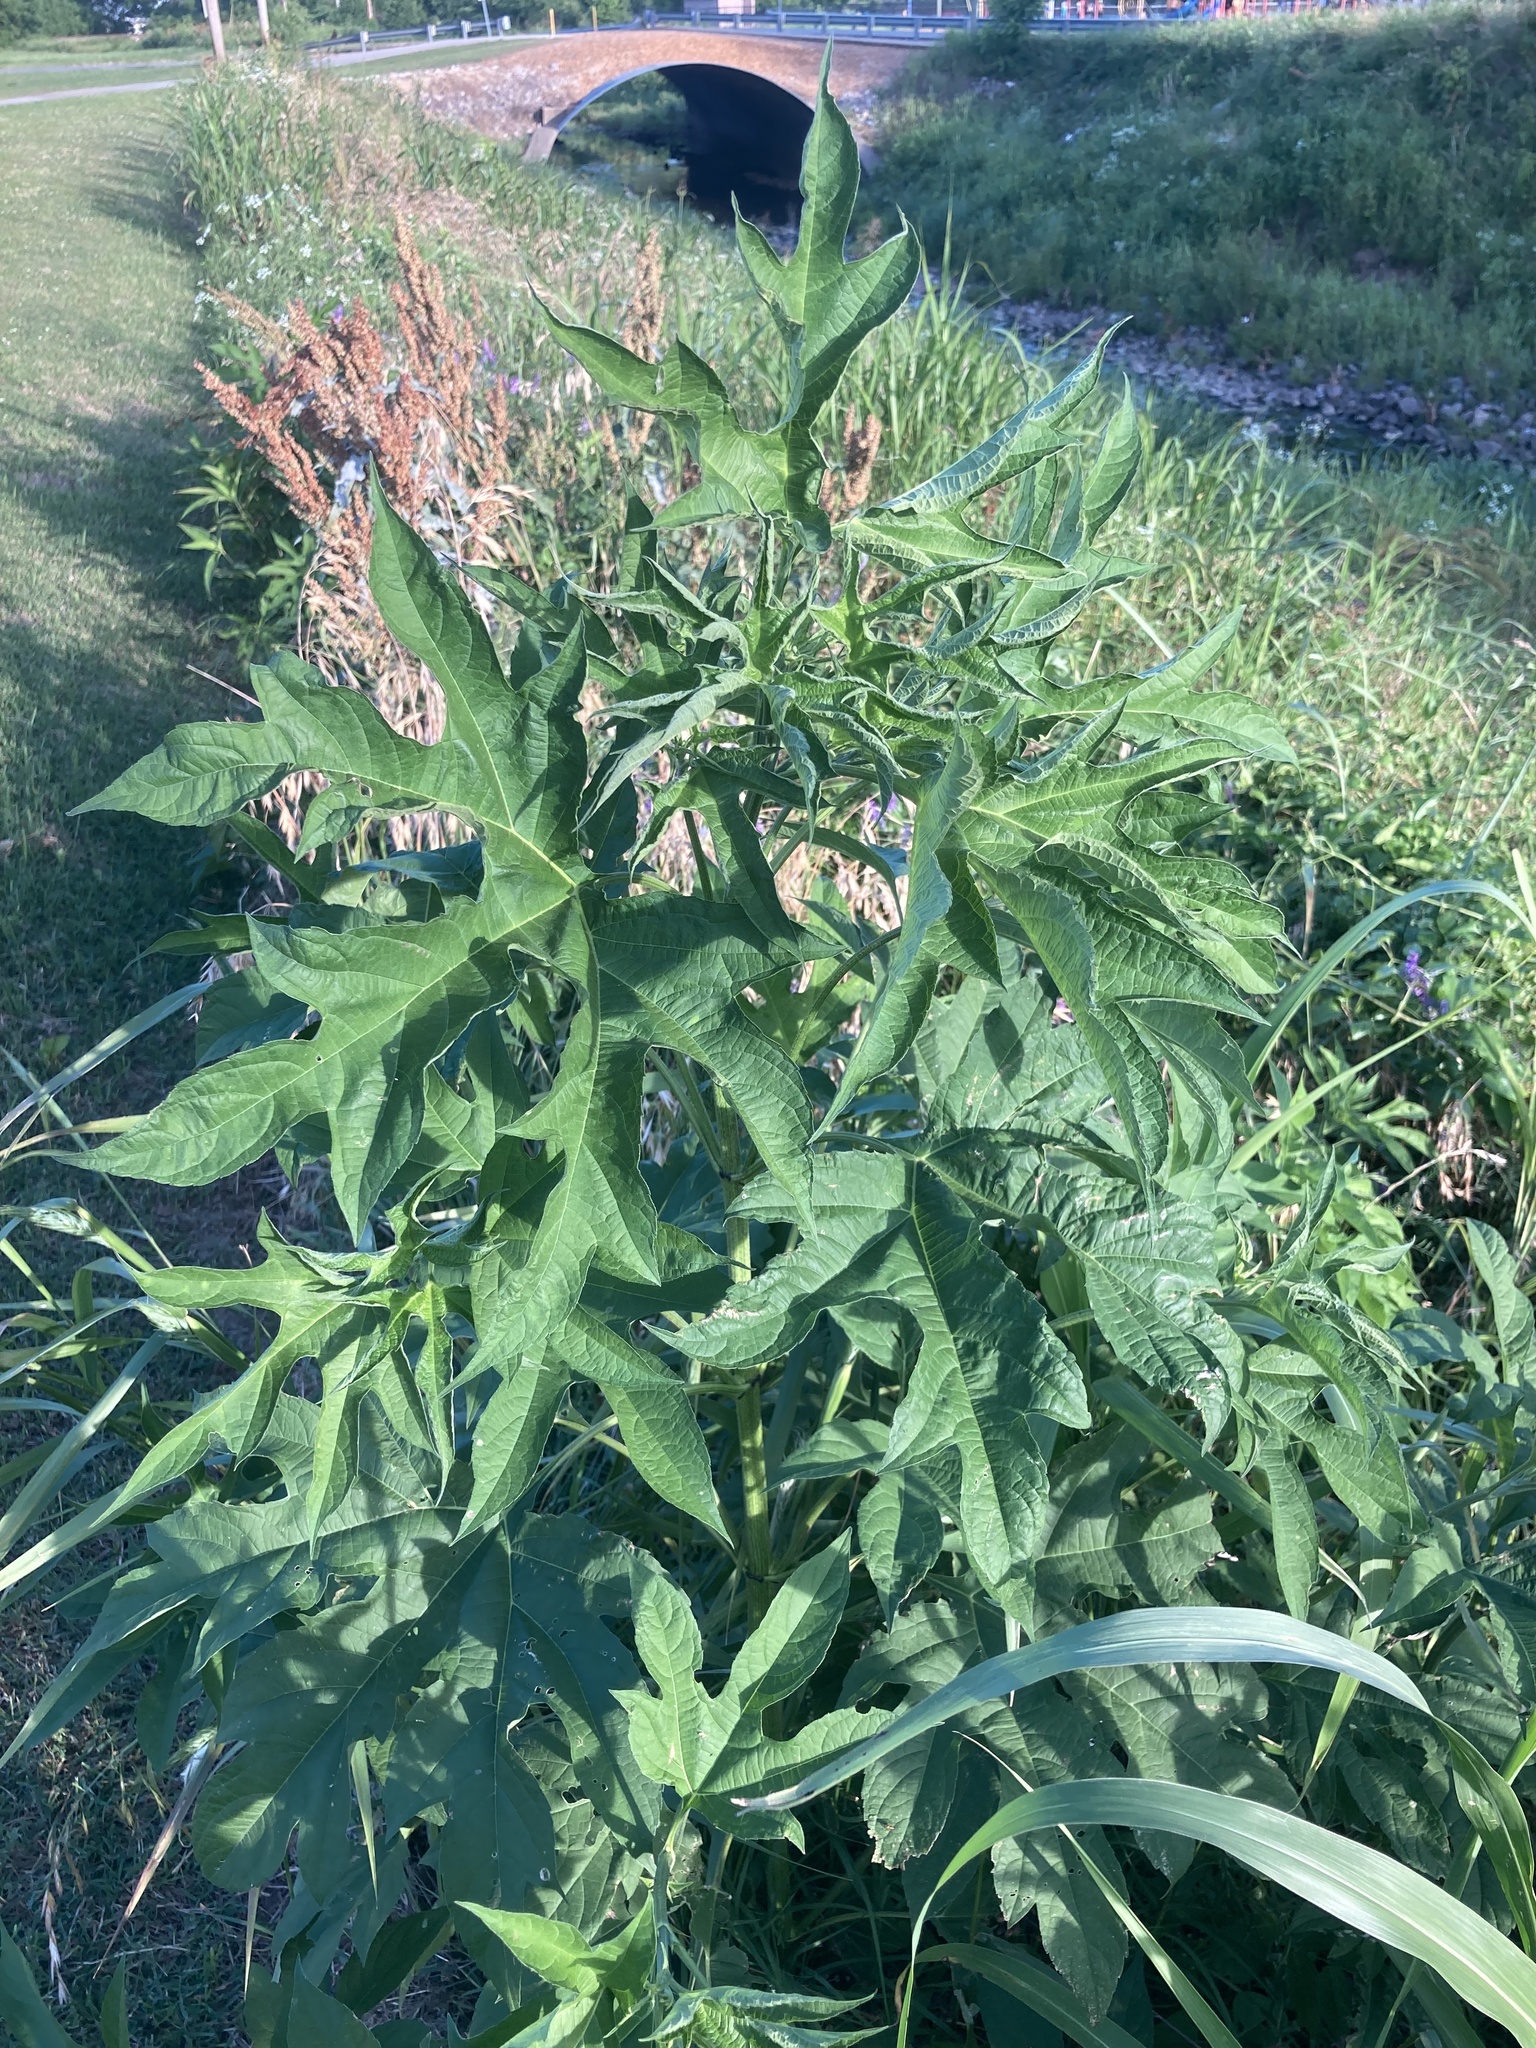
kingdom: Plantae
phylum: Tracheophyta
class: Magnoliopsida
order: Asterales
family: Asteraceae
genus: Ambrosia
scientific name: Ambrosia trifida
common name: Giant ragweed
